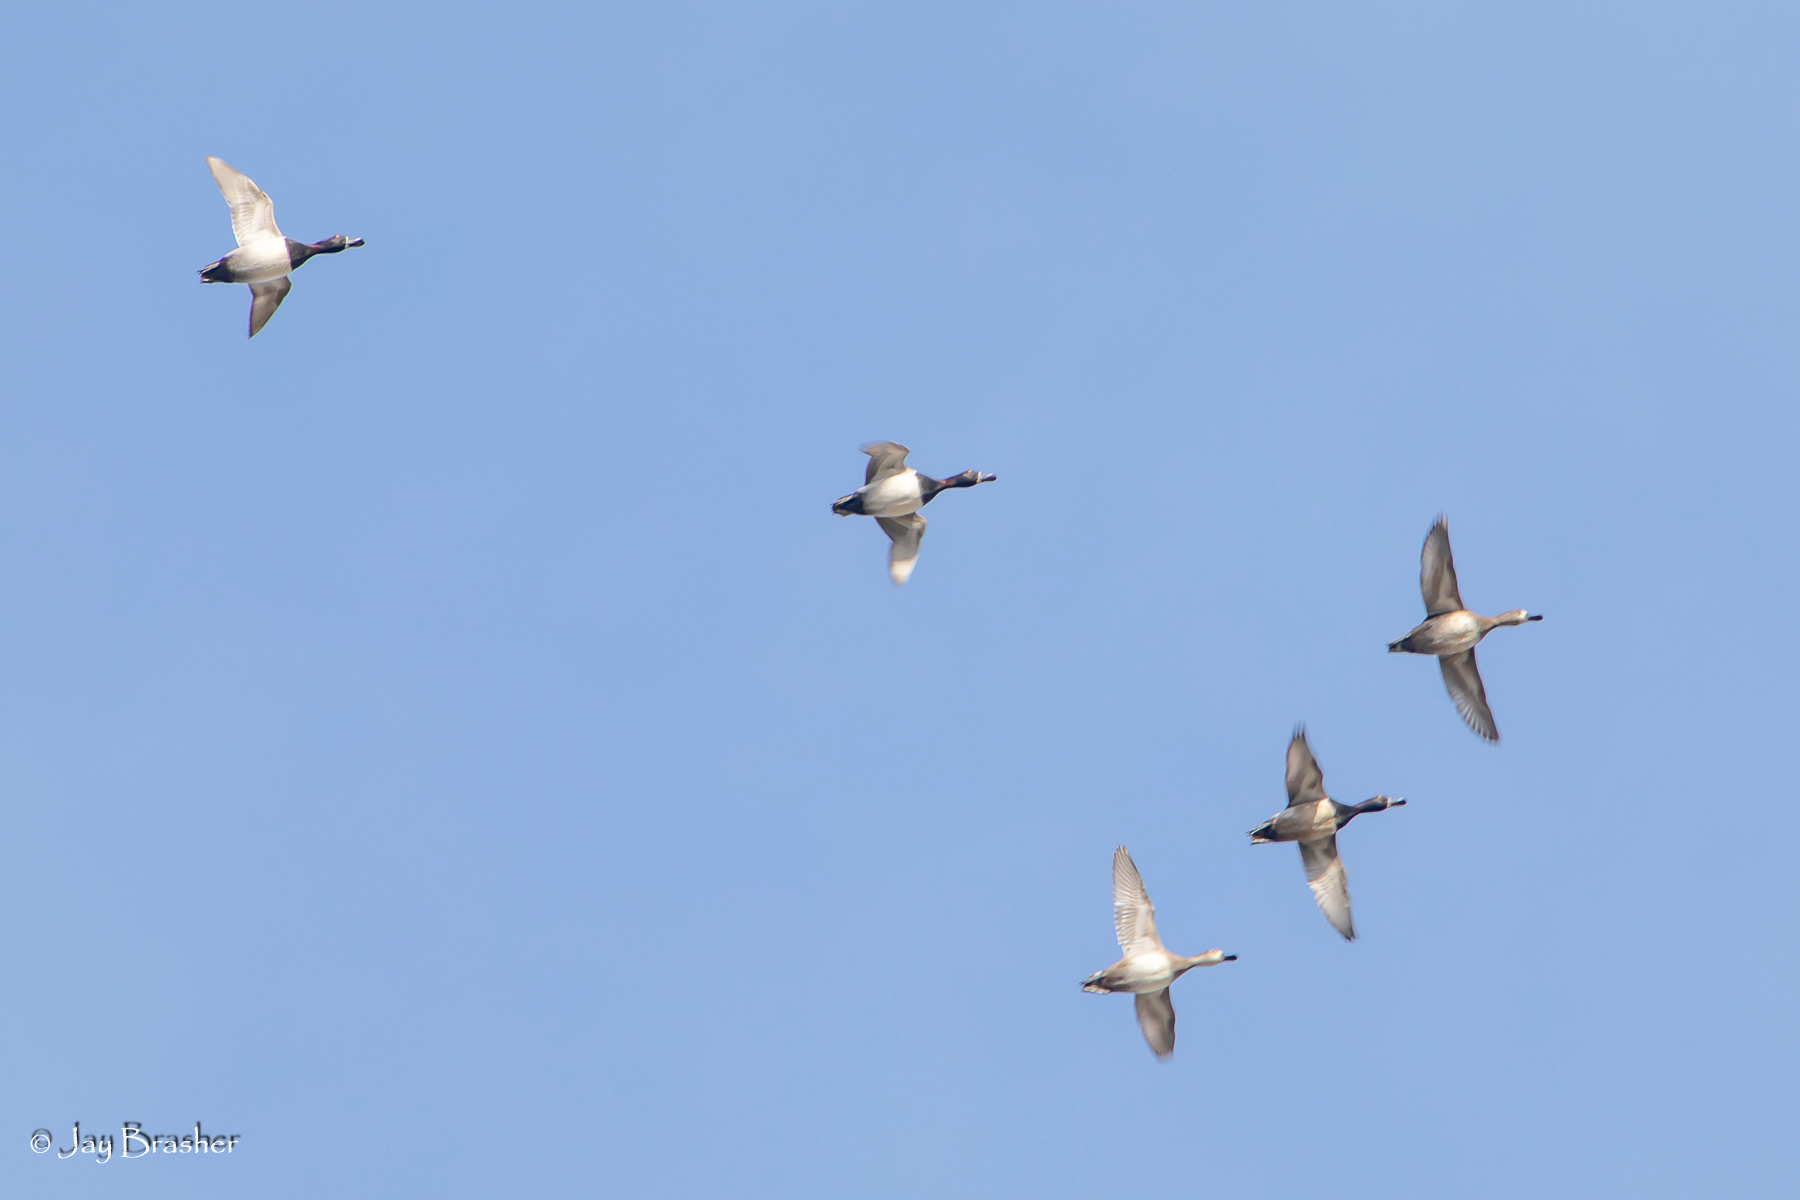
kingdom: Animalia
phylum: Chordata
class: Aves
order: Anseriformes
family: Anatidae
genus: Aythya
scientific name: Aythya collaris
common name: Ring-necked duck
